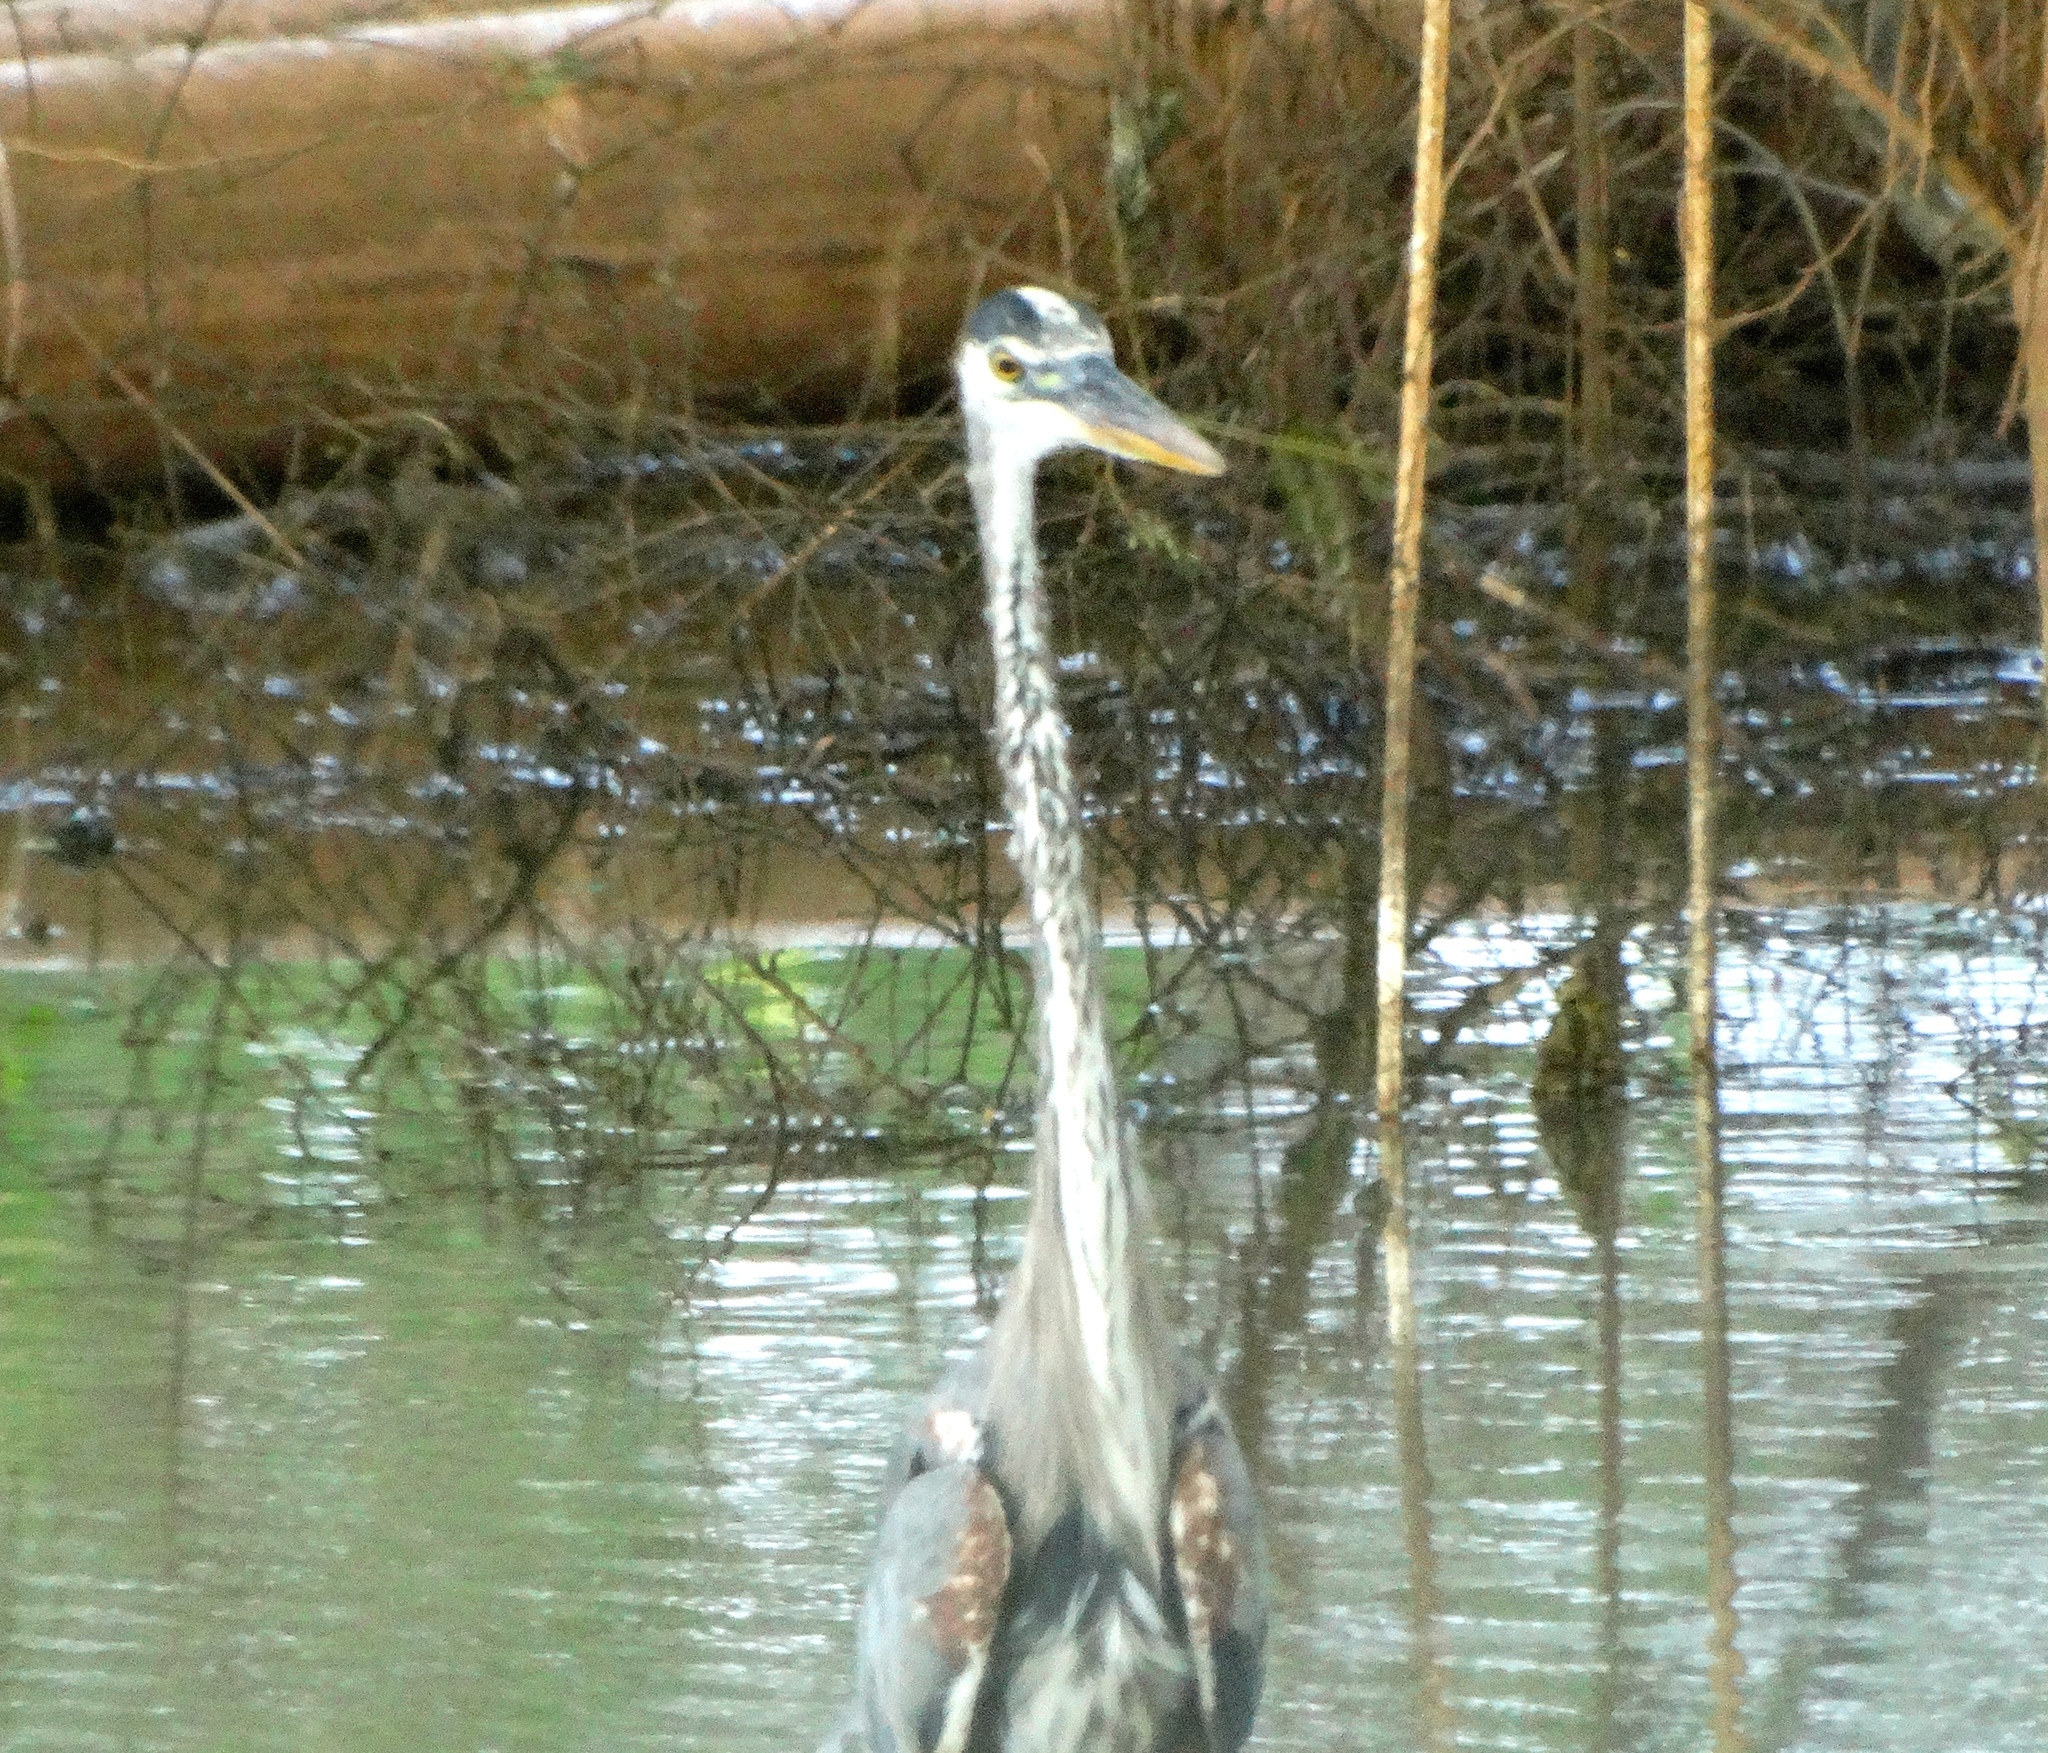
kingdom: Animalia
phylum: Chordata
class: Aves
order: Pelecaniformes
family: Ardeidae
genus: Ardea
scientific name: Ardea herodias
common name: Great blue heron
